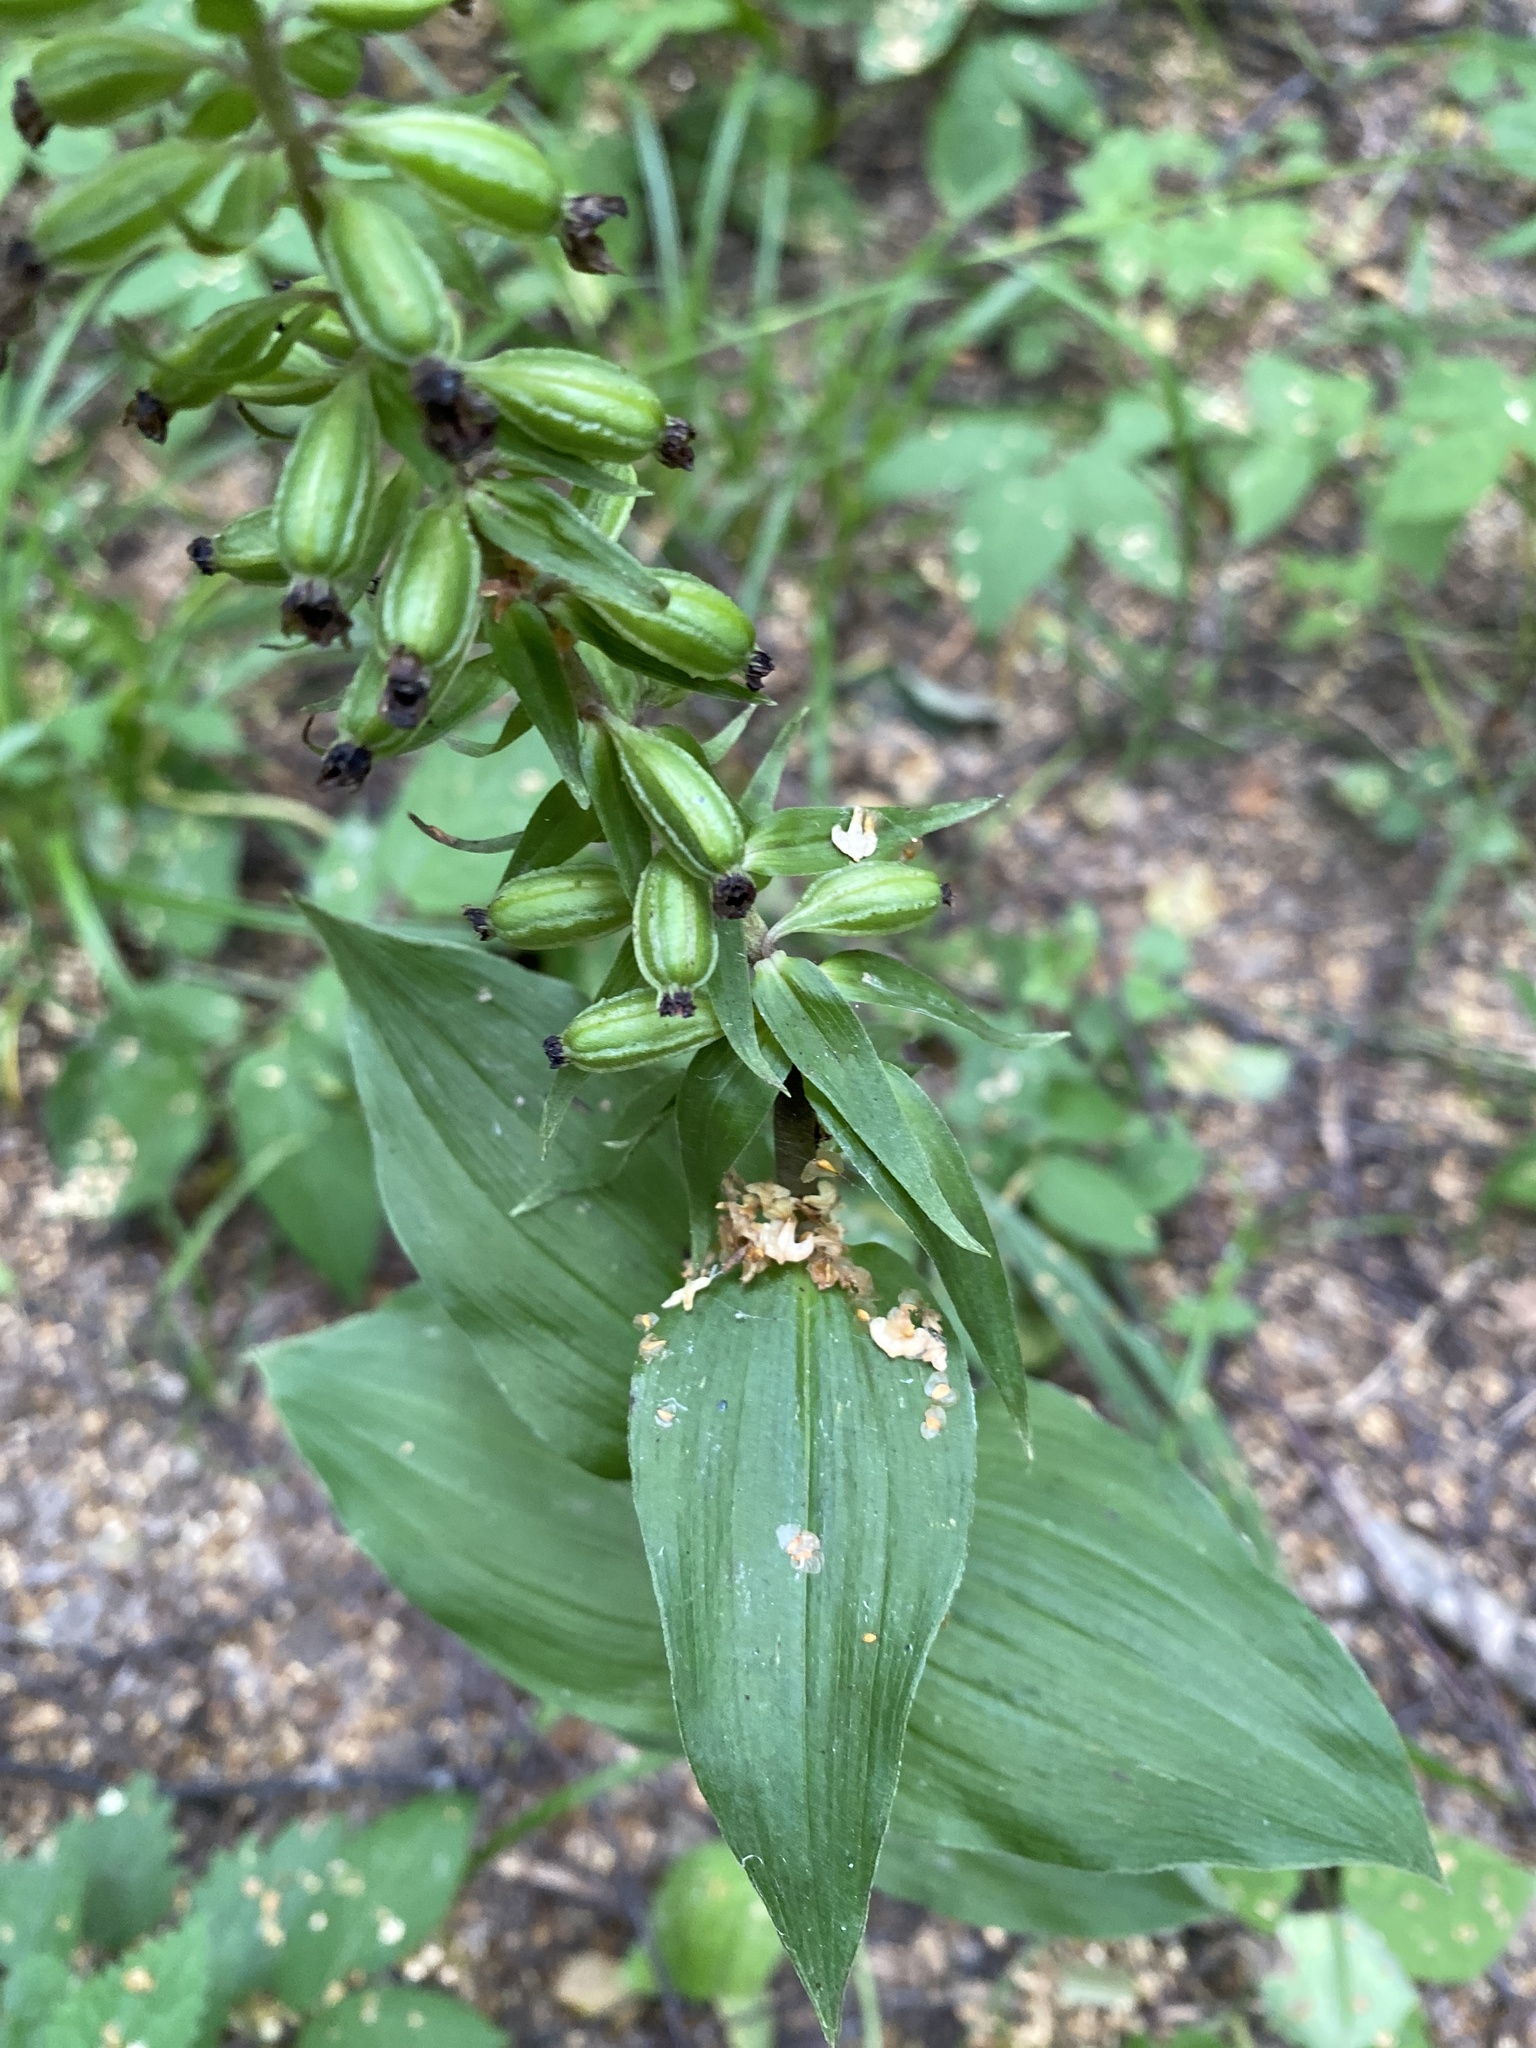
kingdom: Plantae
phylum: Tracheophyta
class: Liliopsida
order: Asparagales
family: Orchidaceae
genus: Epipactis
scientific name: Epipactis helleborine
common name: Broad-leaved helleborine
